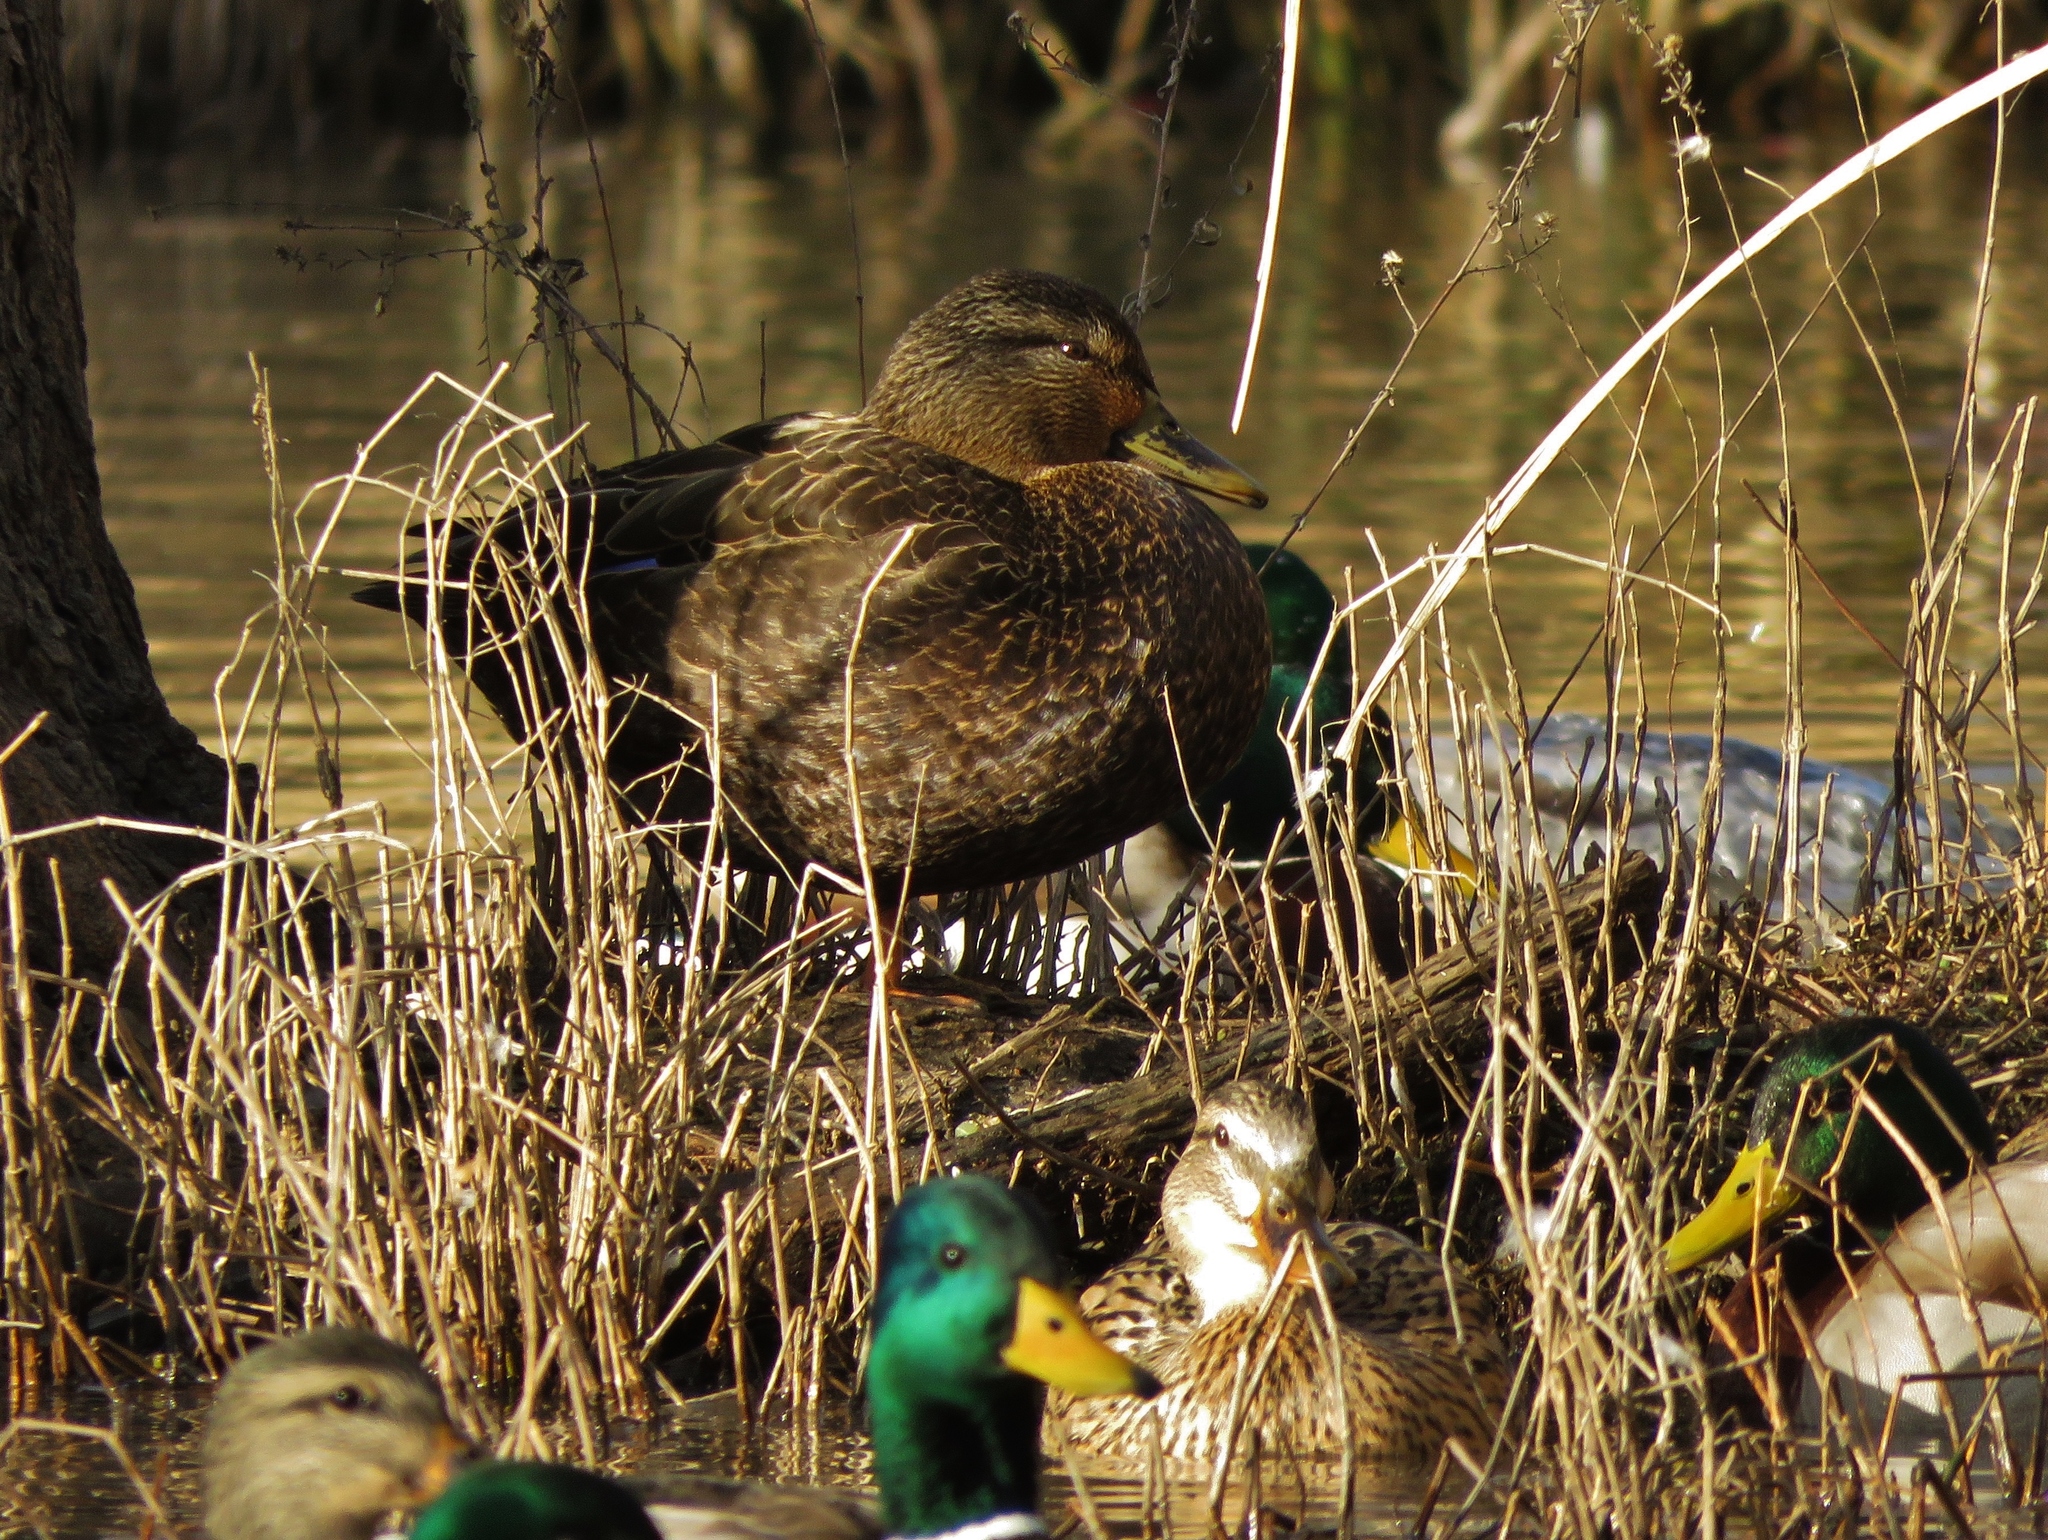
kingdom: Animalia
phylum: Chordata
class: Aves
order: Anseriformes
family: Anatidae
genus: Anas
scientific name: Anas rubripes
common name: American black duck
